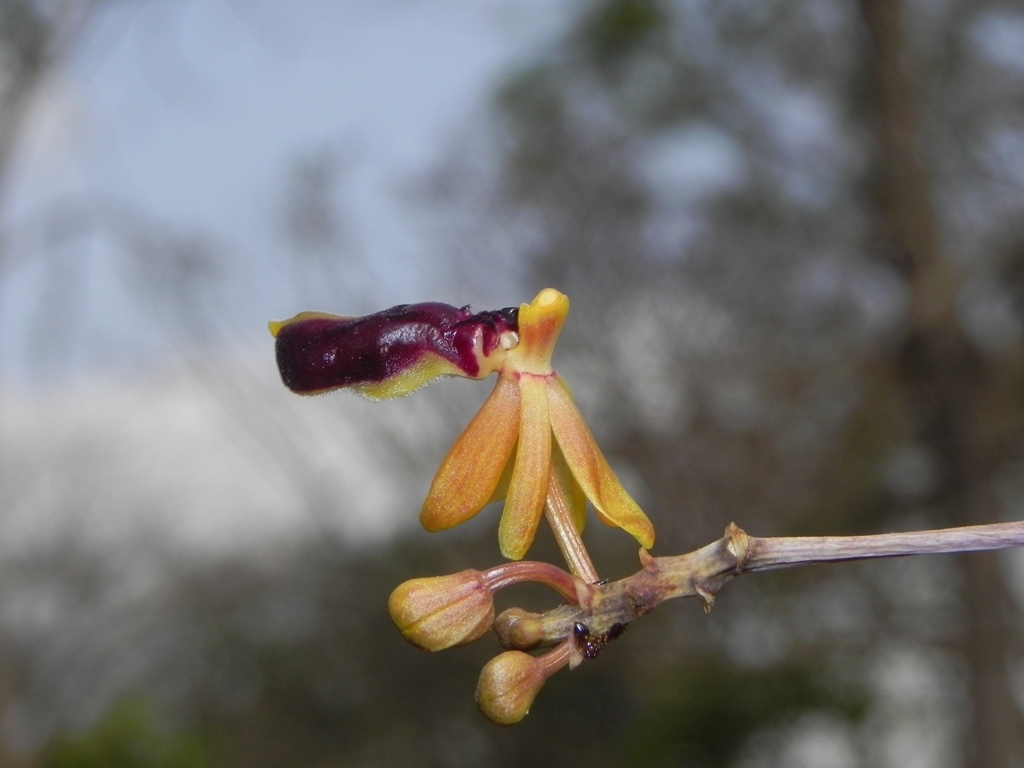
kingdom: Plantae
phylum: Tracheophyta
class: Liliopsida
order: Asparagales
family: Orchidaceae
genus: Cottonia
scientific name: Cottonia peduncularis
